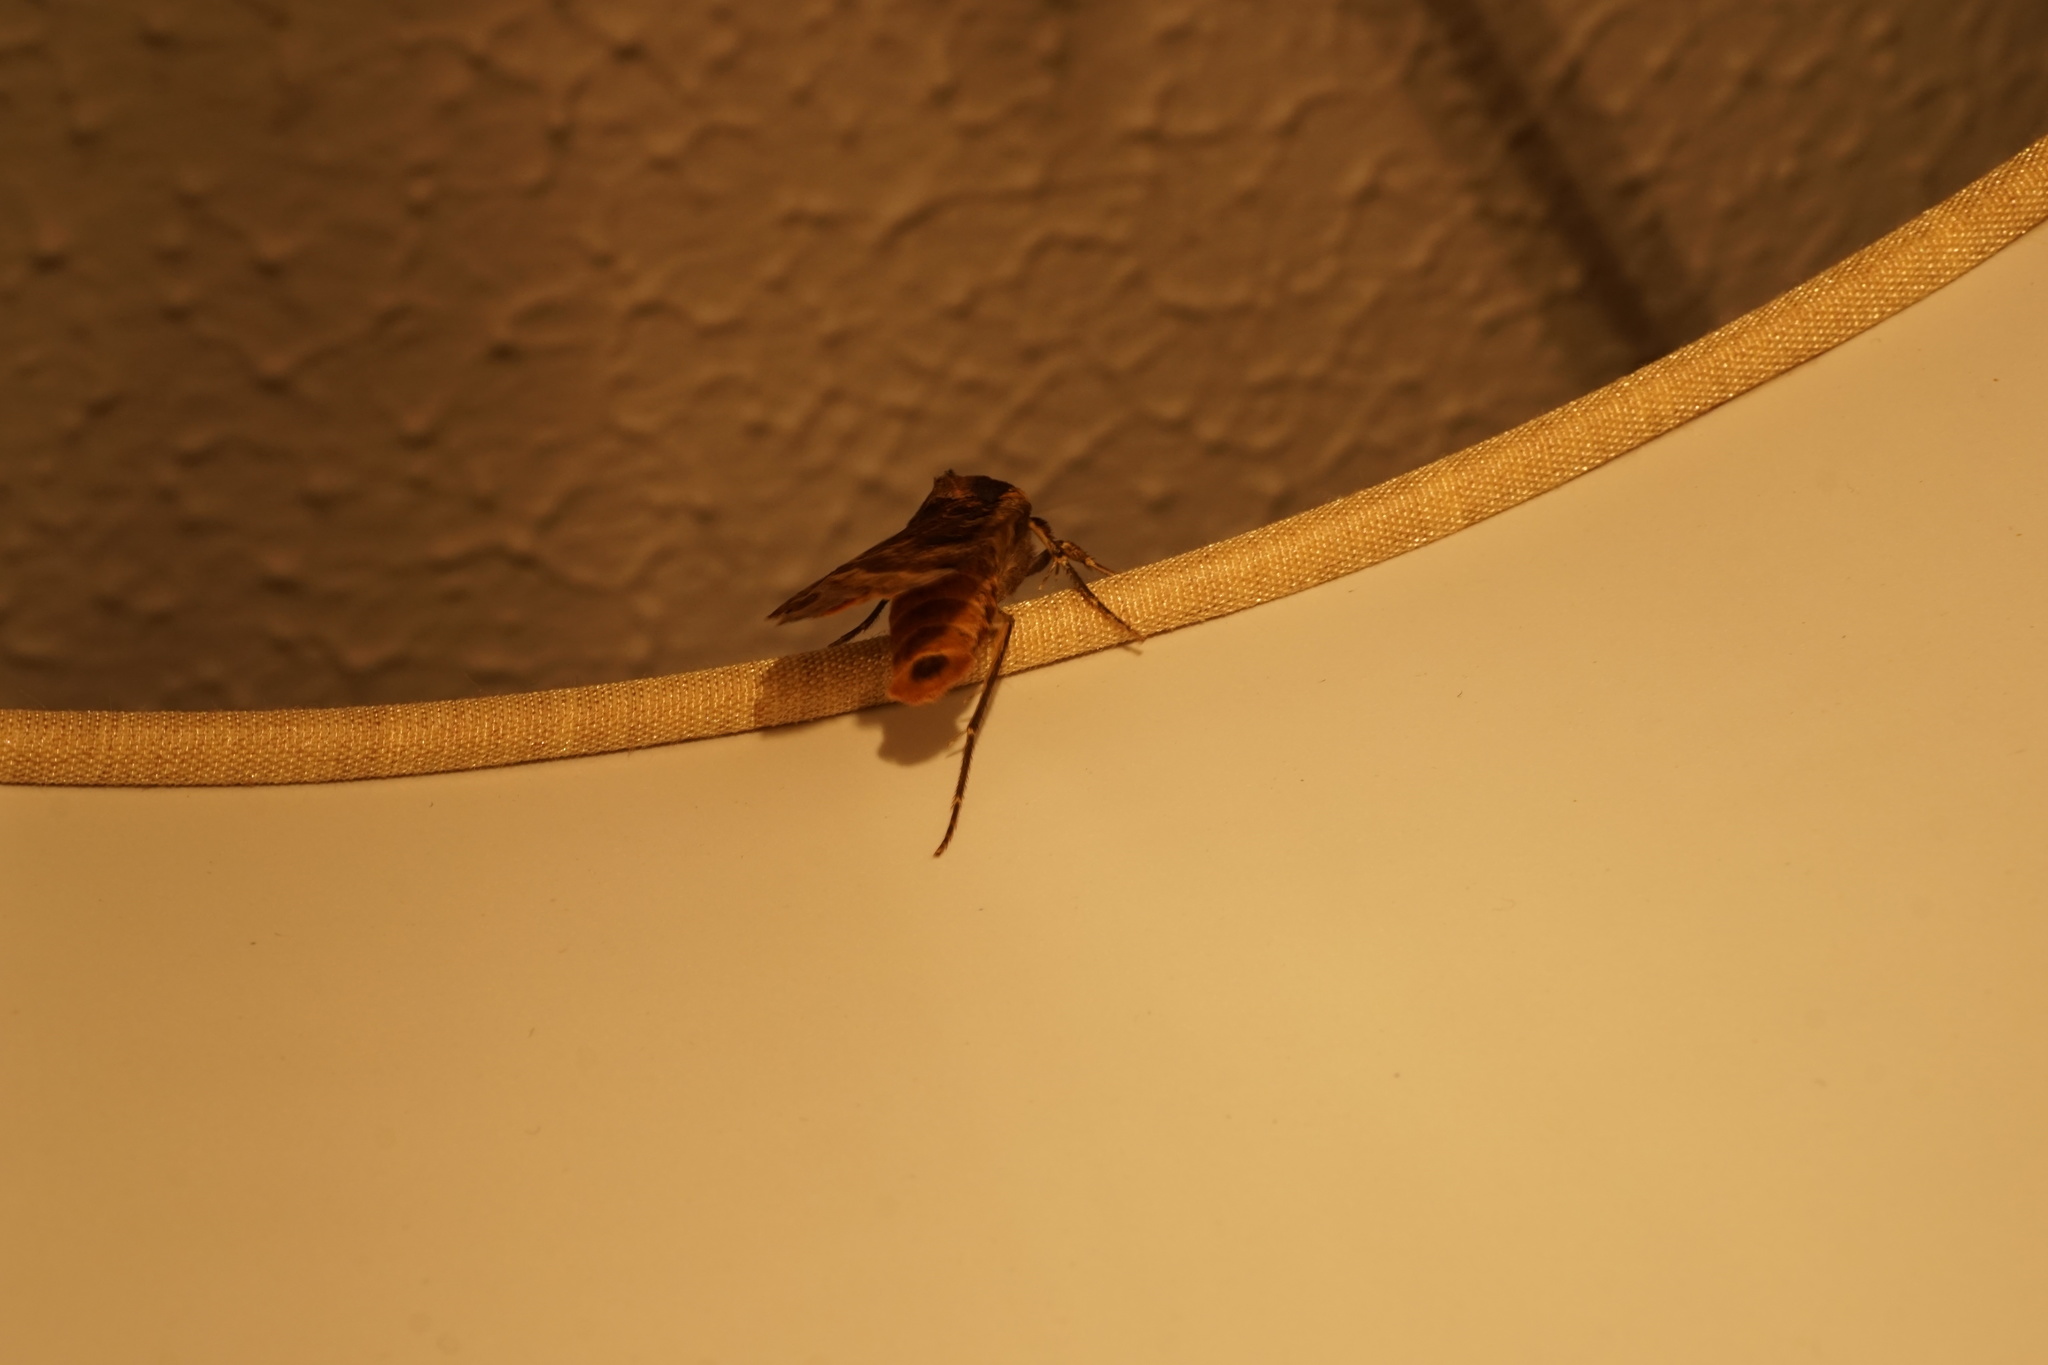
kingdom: Animalia
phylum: Arthropoda
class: Insecta
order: Lepidoptera
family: Noctuidae
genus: Noctua
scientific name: Noctua pronuba
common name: Large yellow underwing
